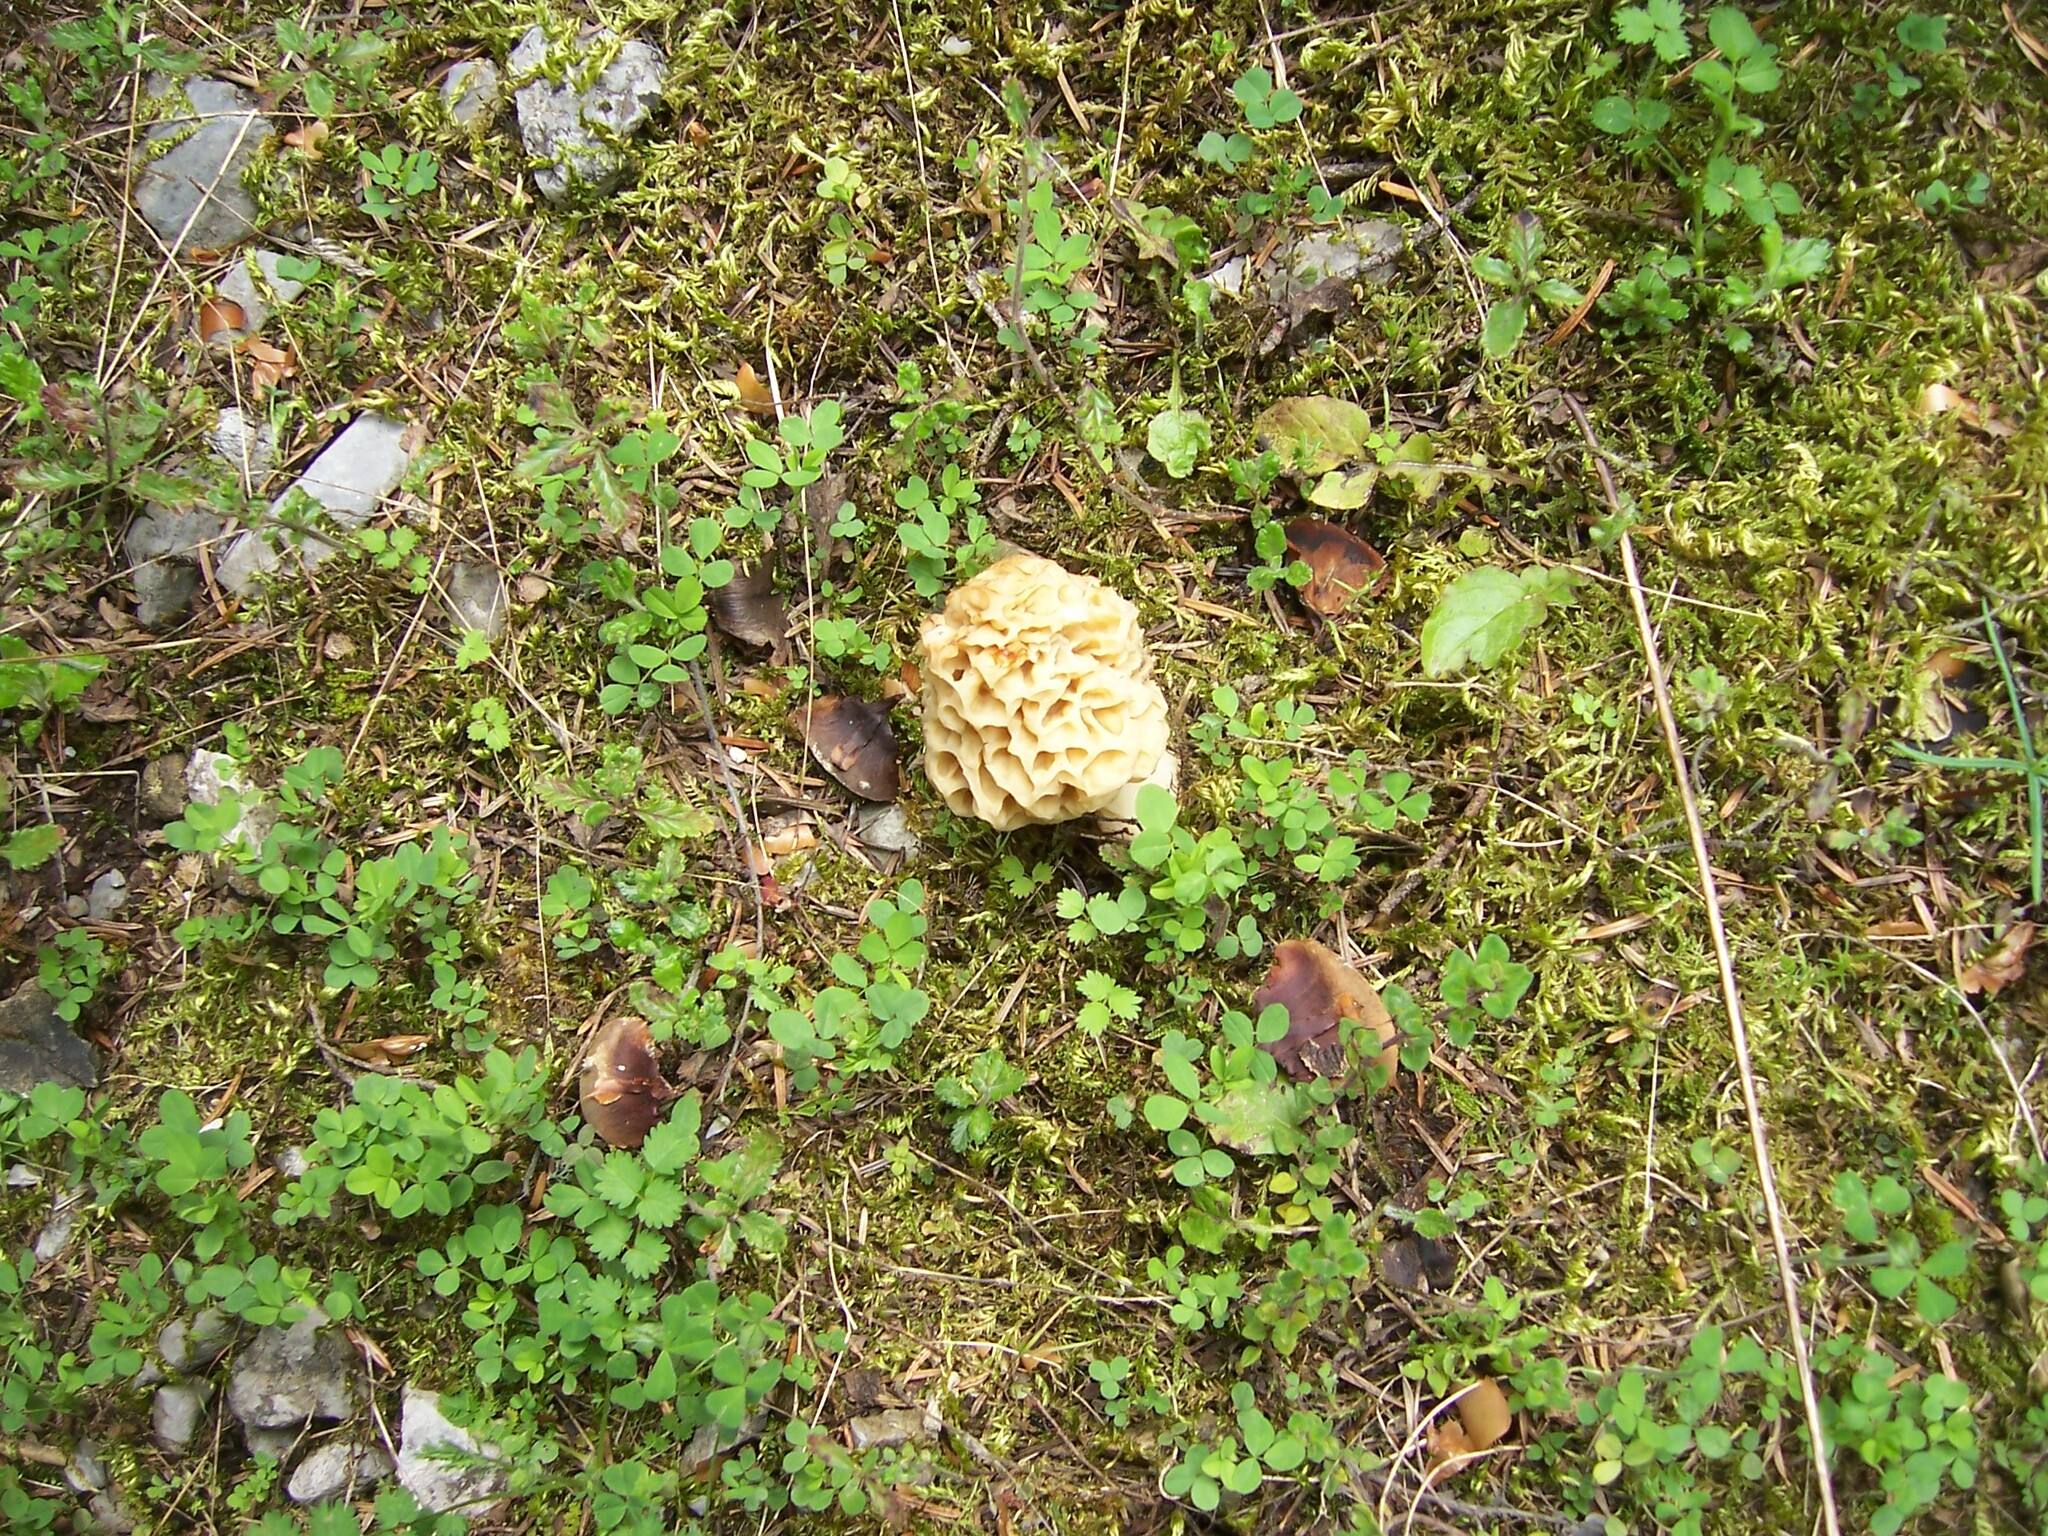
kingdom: Fungi
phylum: Ascomycota
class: Pezizomycetes
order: Pezizales
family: Morchellaceae
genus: Morchella
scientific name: Morchella
